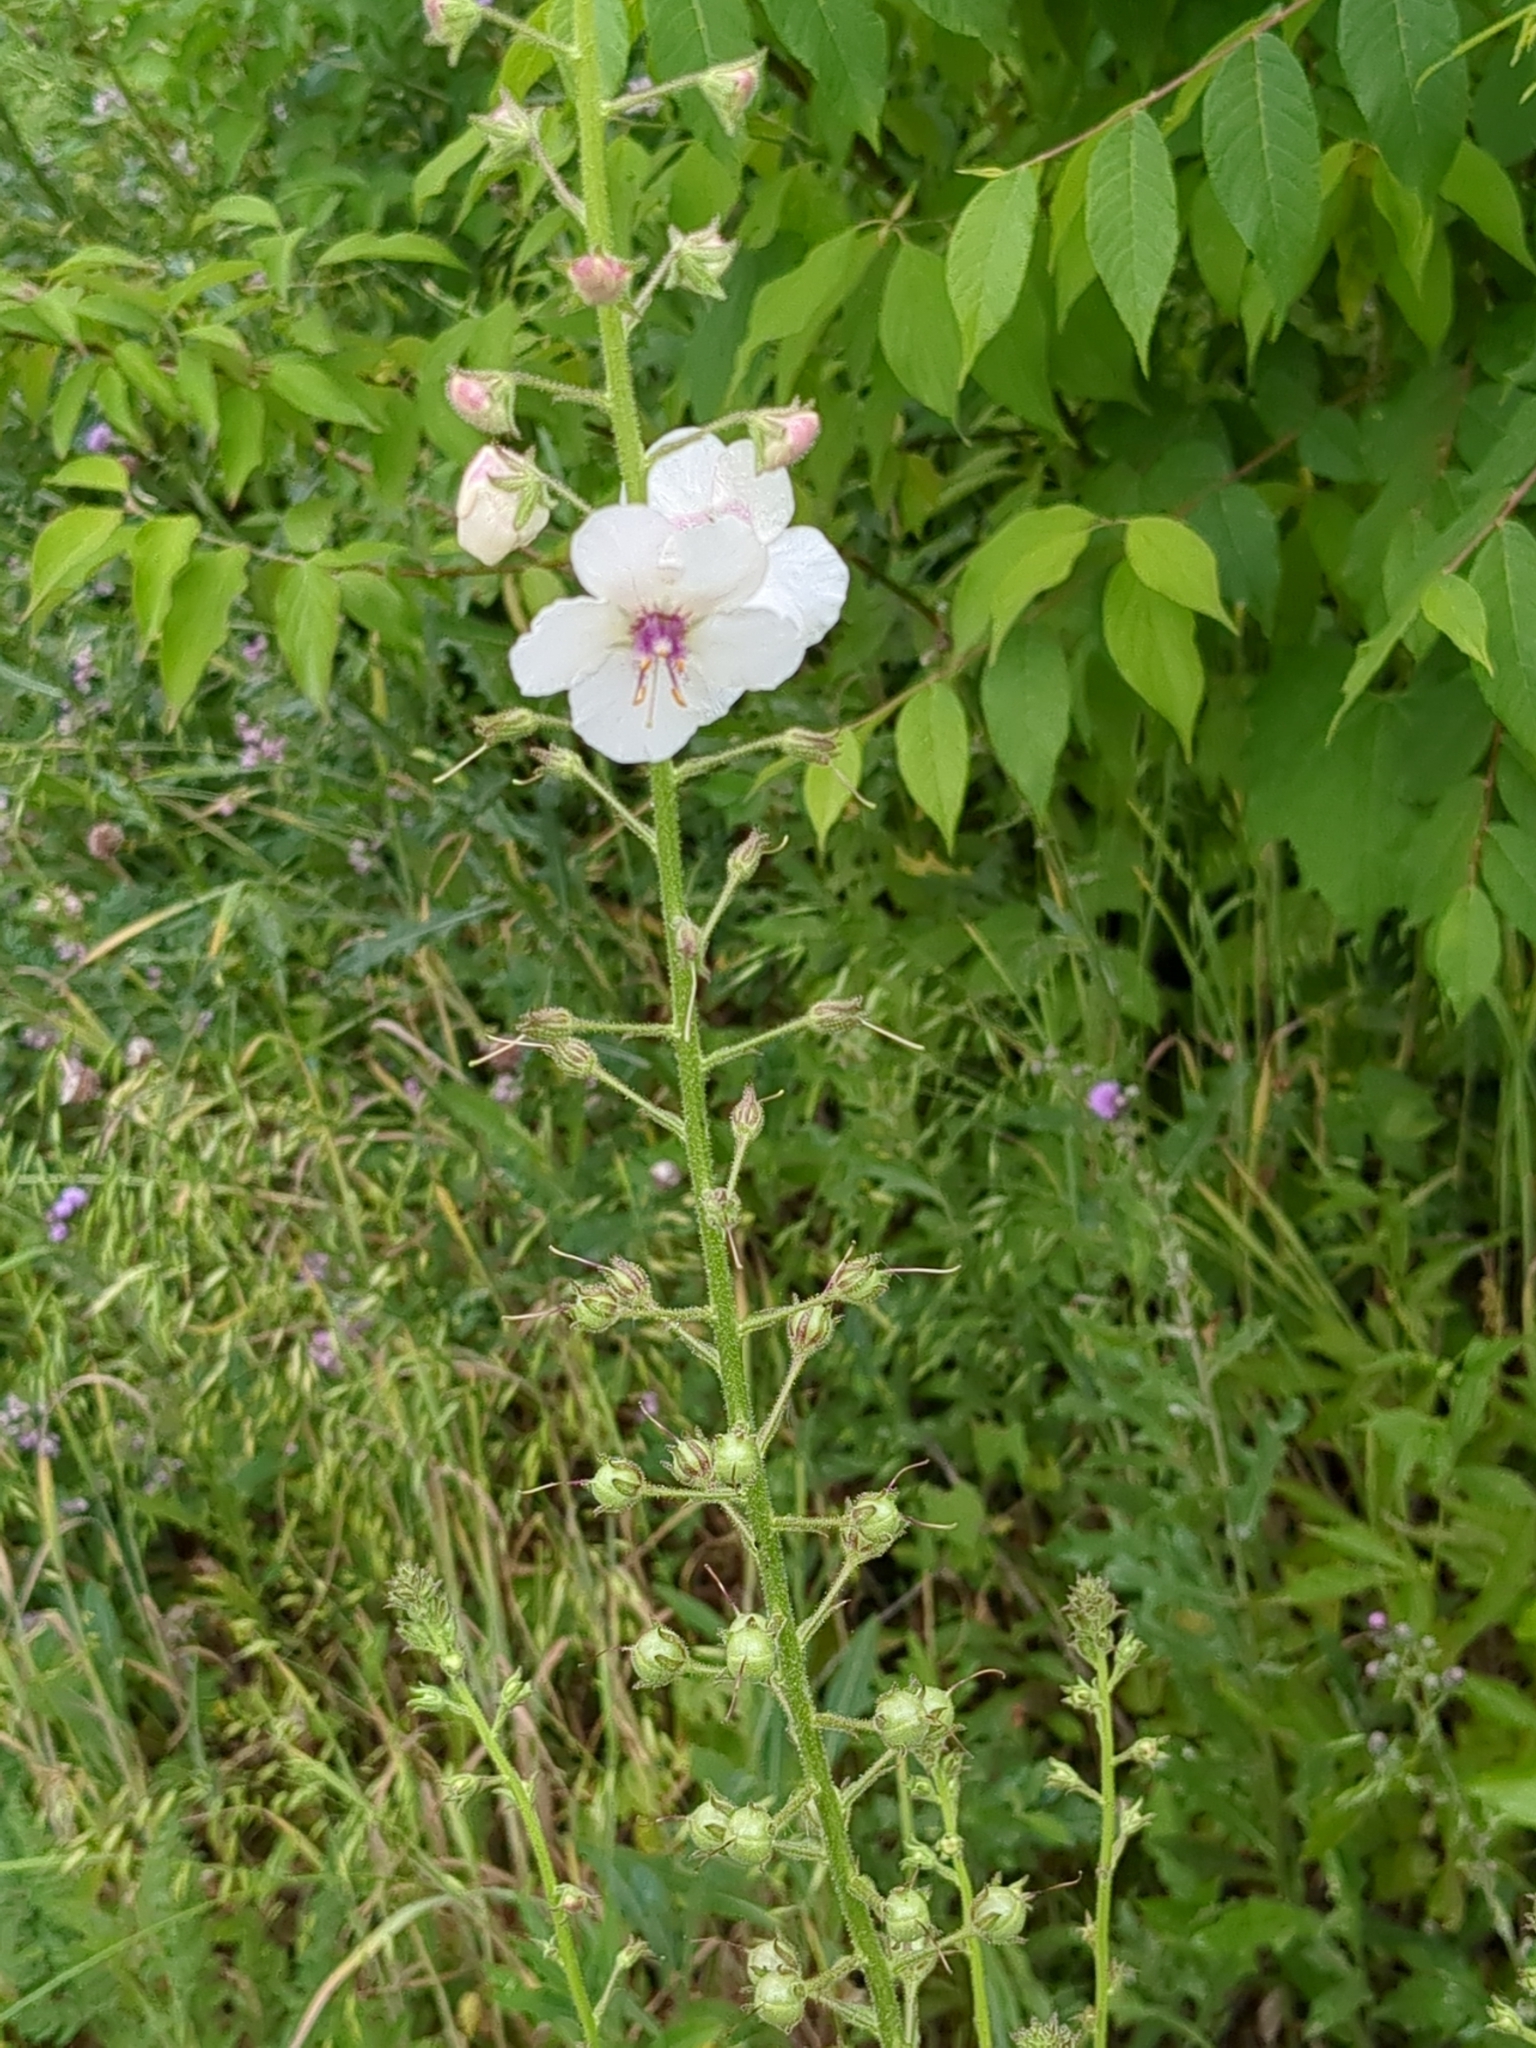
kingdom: Plantae
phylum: Tracheophyta
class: Magnoliopsida
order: Lamiales
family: Scrophulariaceae
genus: Verbascum
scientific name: Verbascum blattaria
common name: Moth mullein
